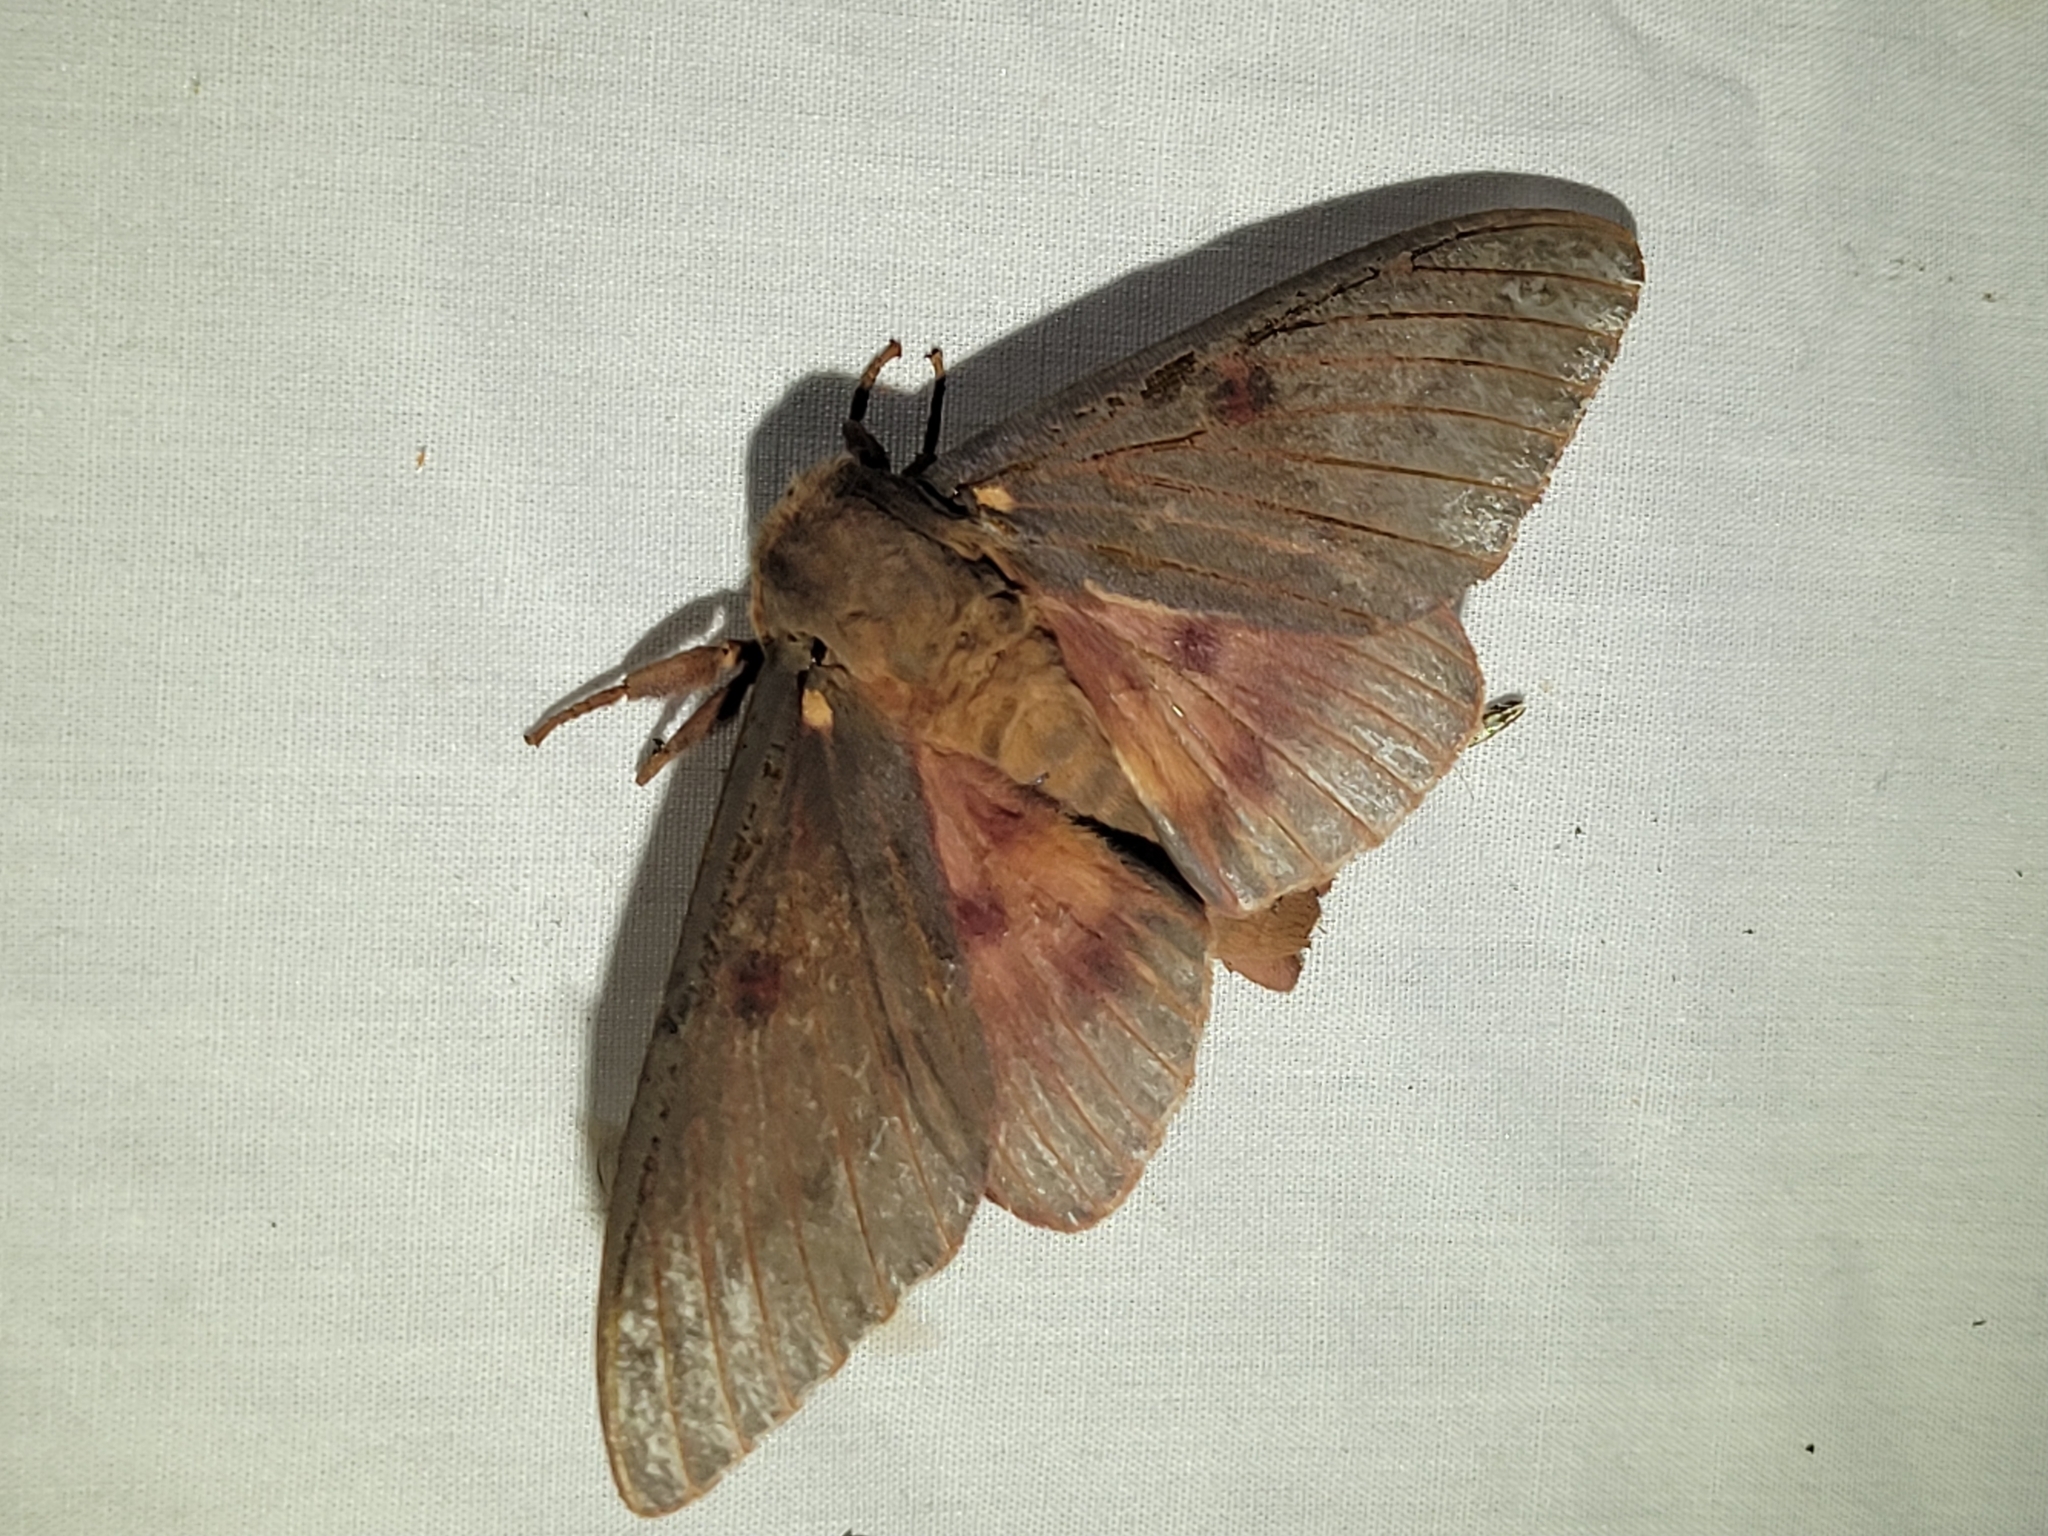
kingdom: Animalia
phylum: Arthropoda
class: Insecta
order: Lepidoptera
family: Saturniidae
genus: Citheronia
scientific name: Citheronia sepulcralis
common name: Pine-devil moth
